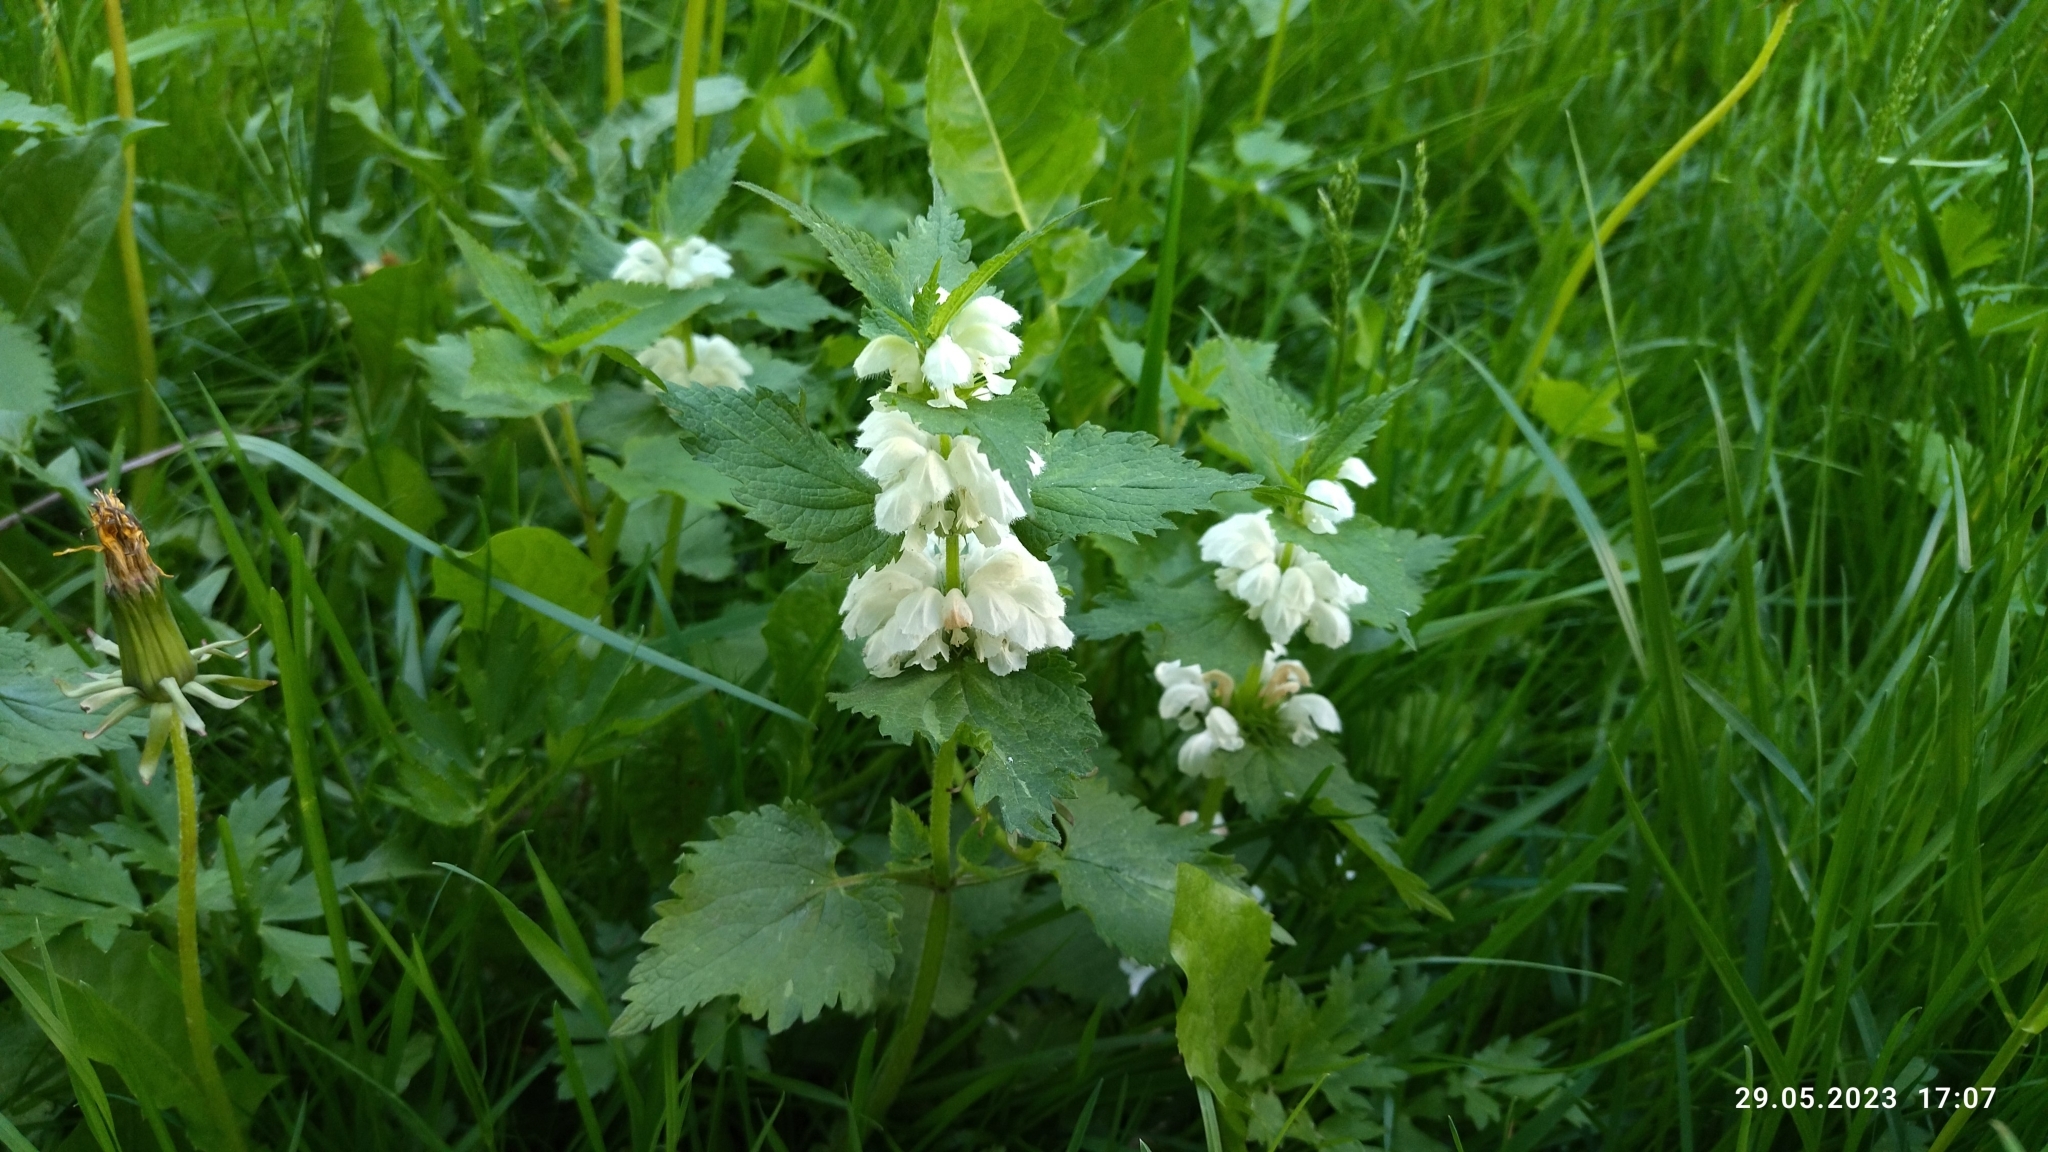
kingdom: Plantae
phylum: Tracheophyta
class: Magnoliopsida
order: Lamiales
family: Lamiaceae
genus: Lamium
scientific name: Lamium album
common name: White dead-nettle
